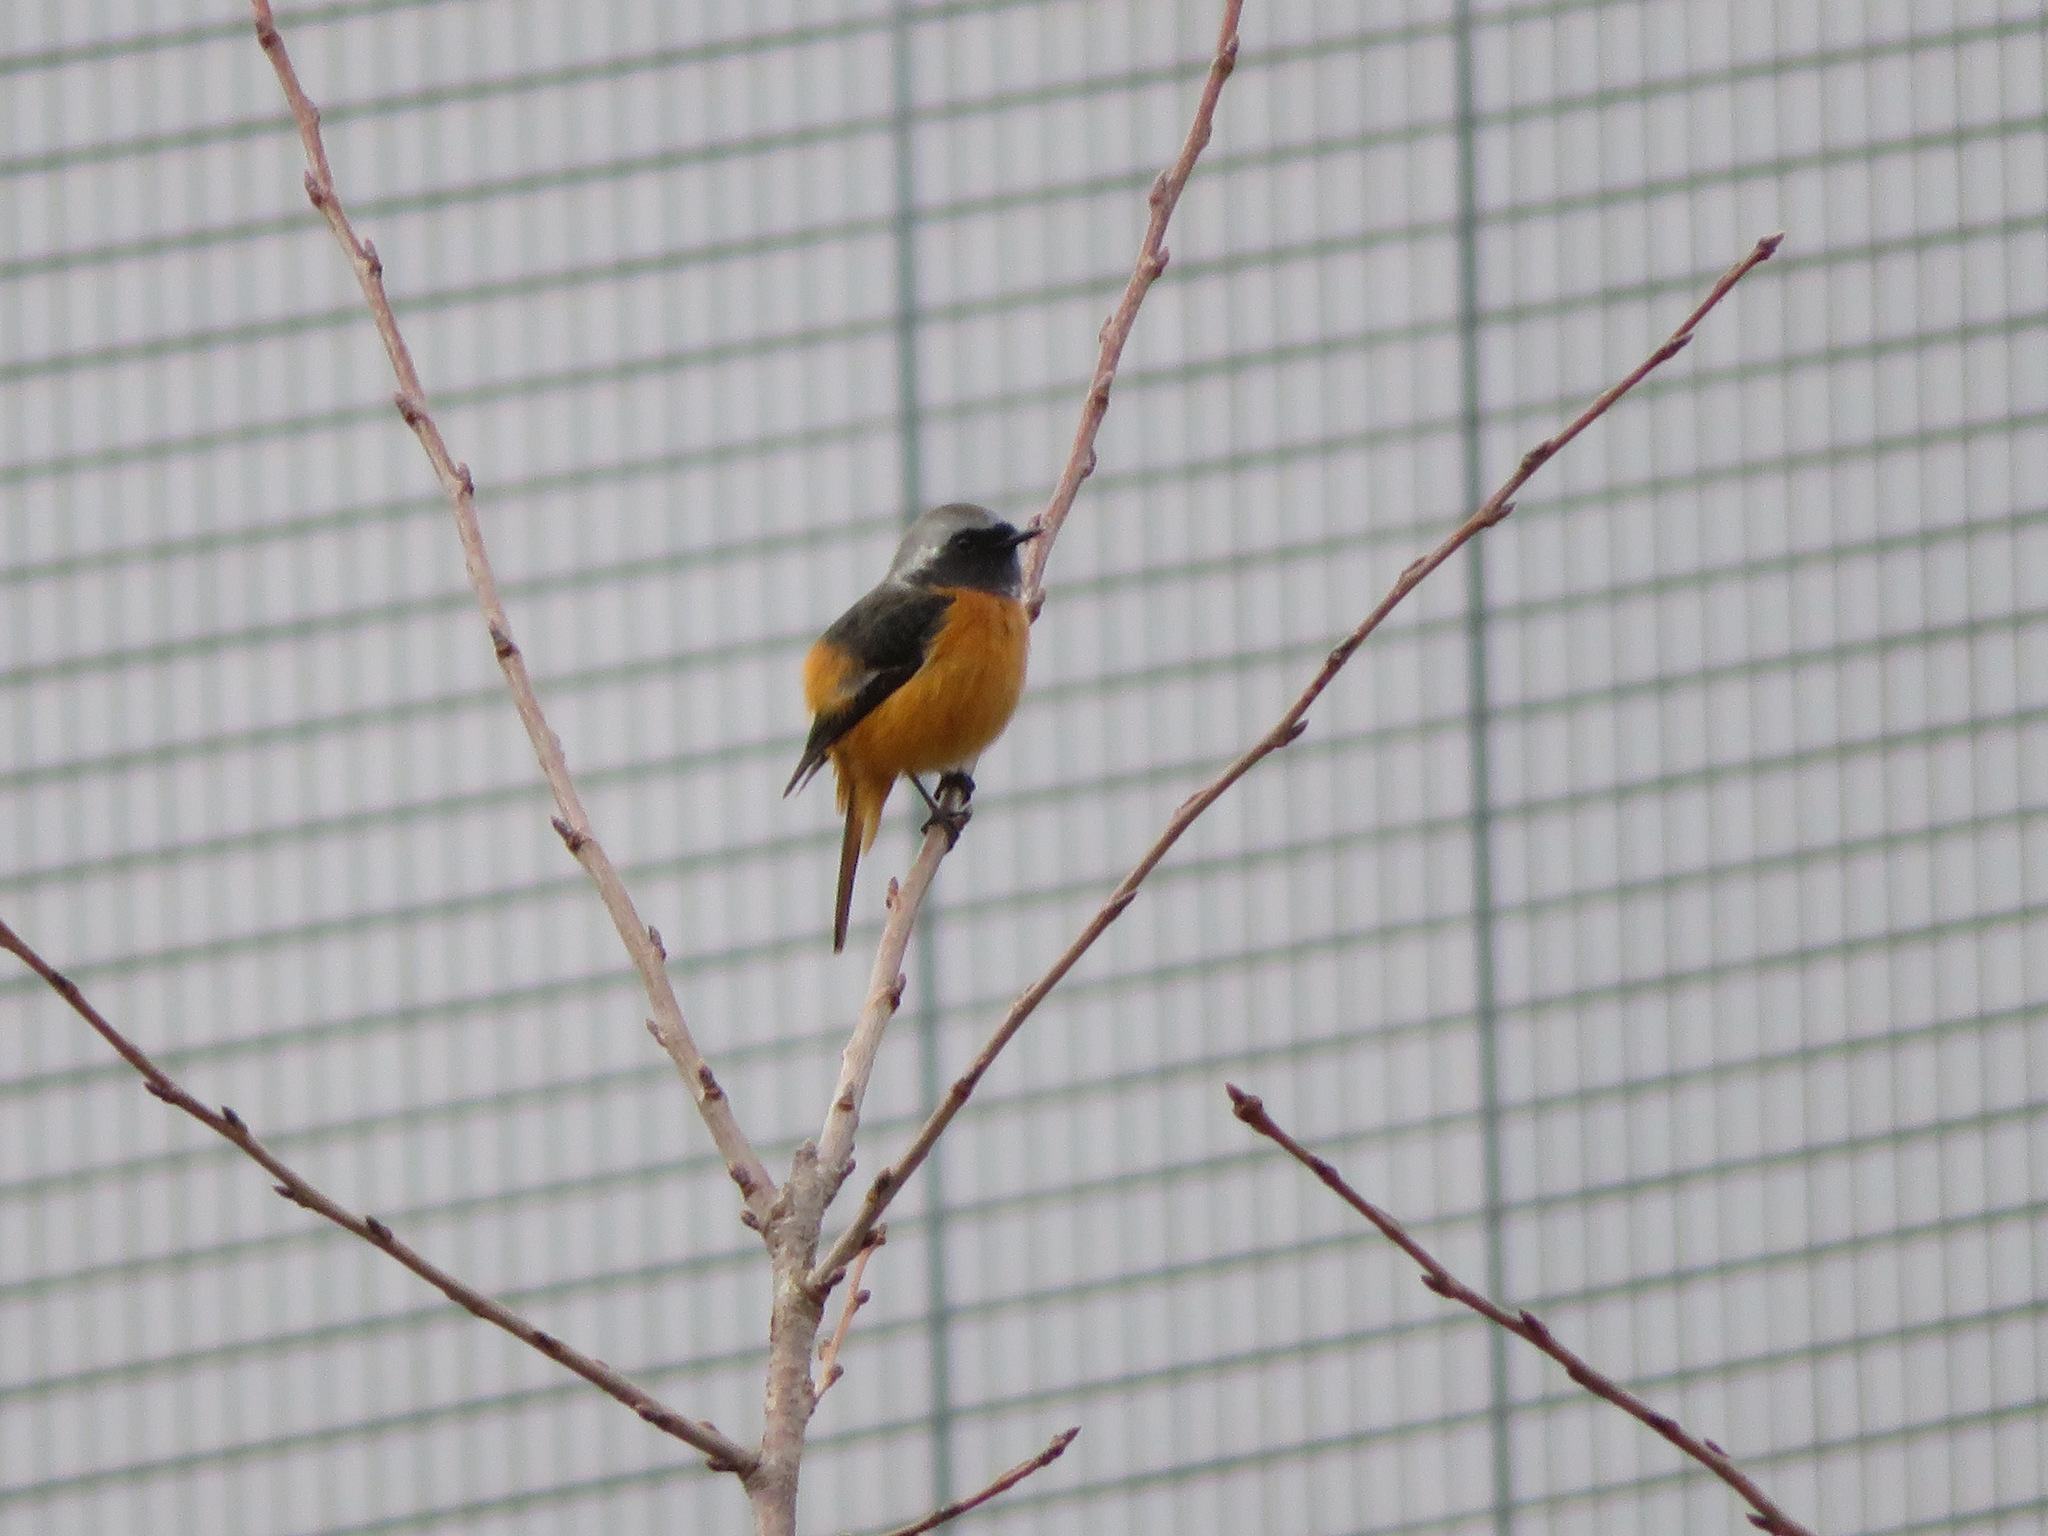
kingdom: Animalia
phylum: Chordata
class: Aves
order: Passeriformes
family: Muscicapidae
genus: Phoenicurus
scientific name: Phoenicurus auroreus
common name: Daurian redstart
